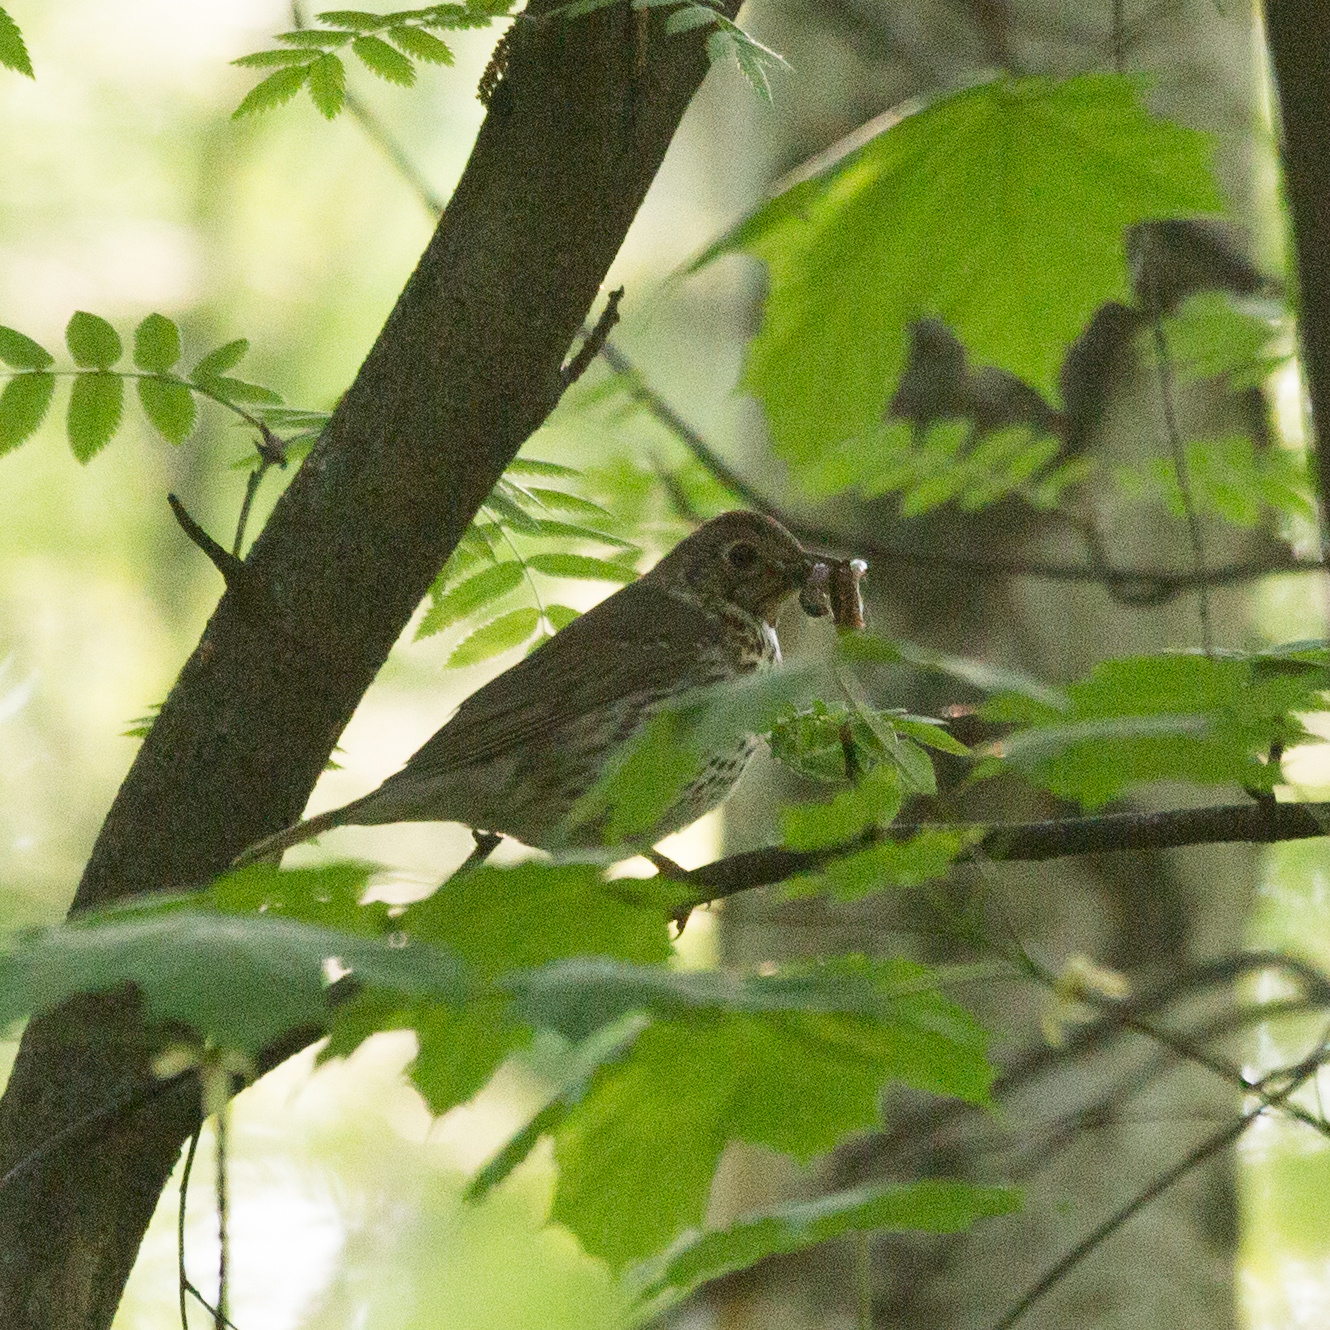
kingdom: Animalia
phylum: Chordata
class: Aves
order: Passeriformes
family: Turdidae
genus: Turdus
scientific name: Turdus philomelos
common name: Song thrush
